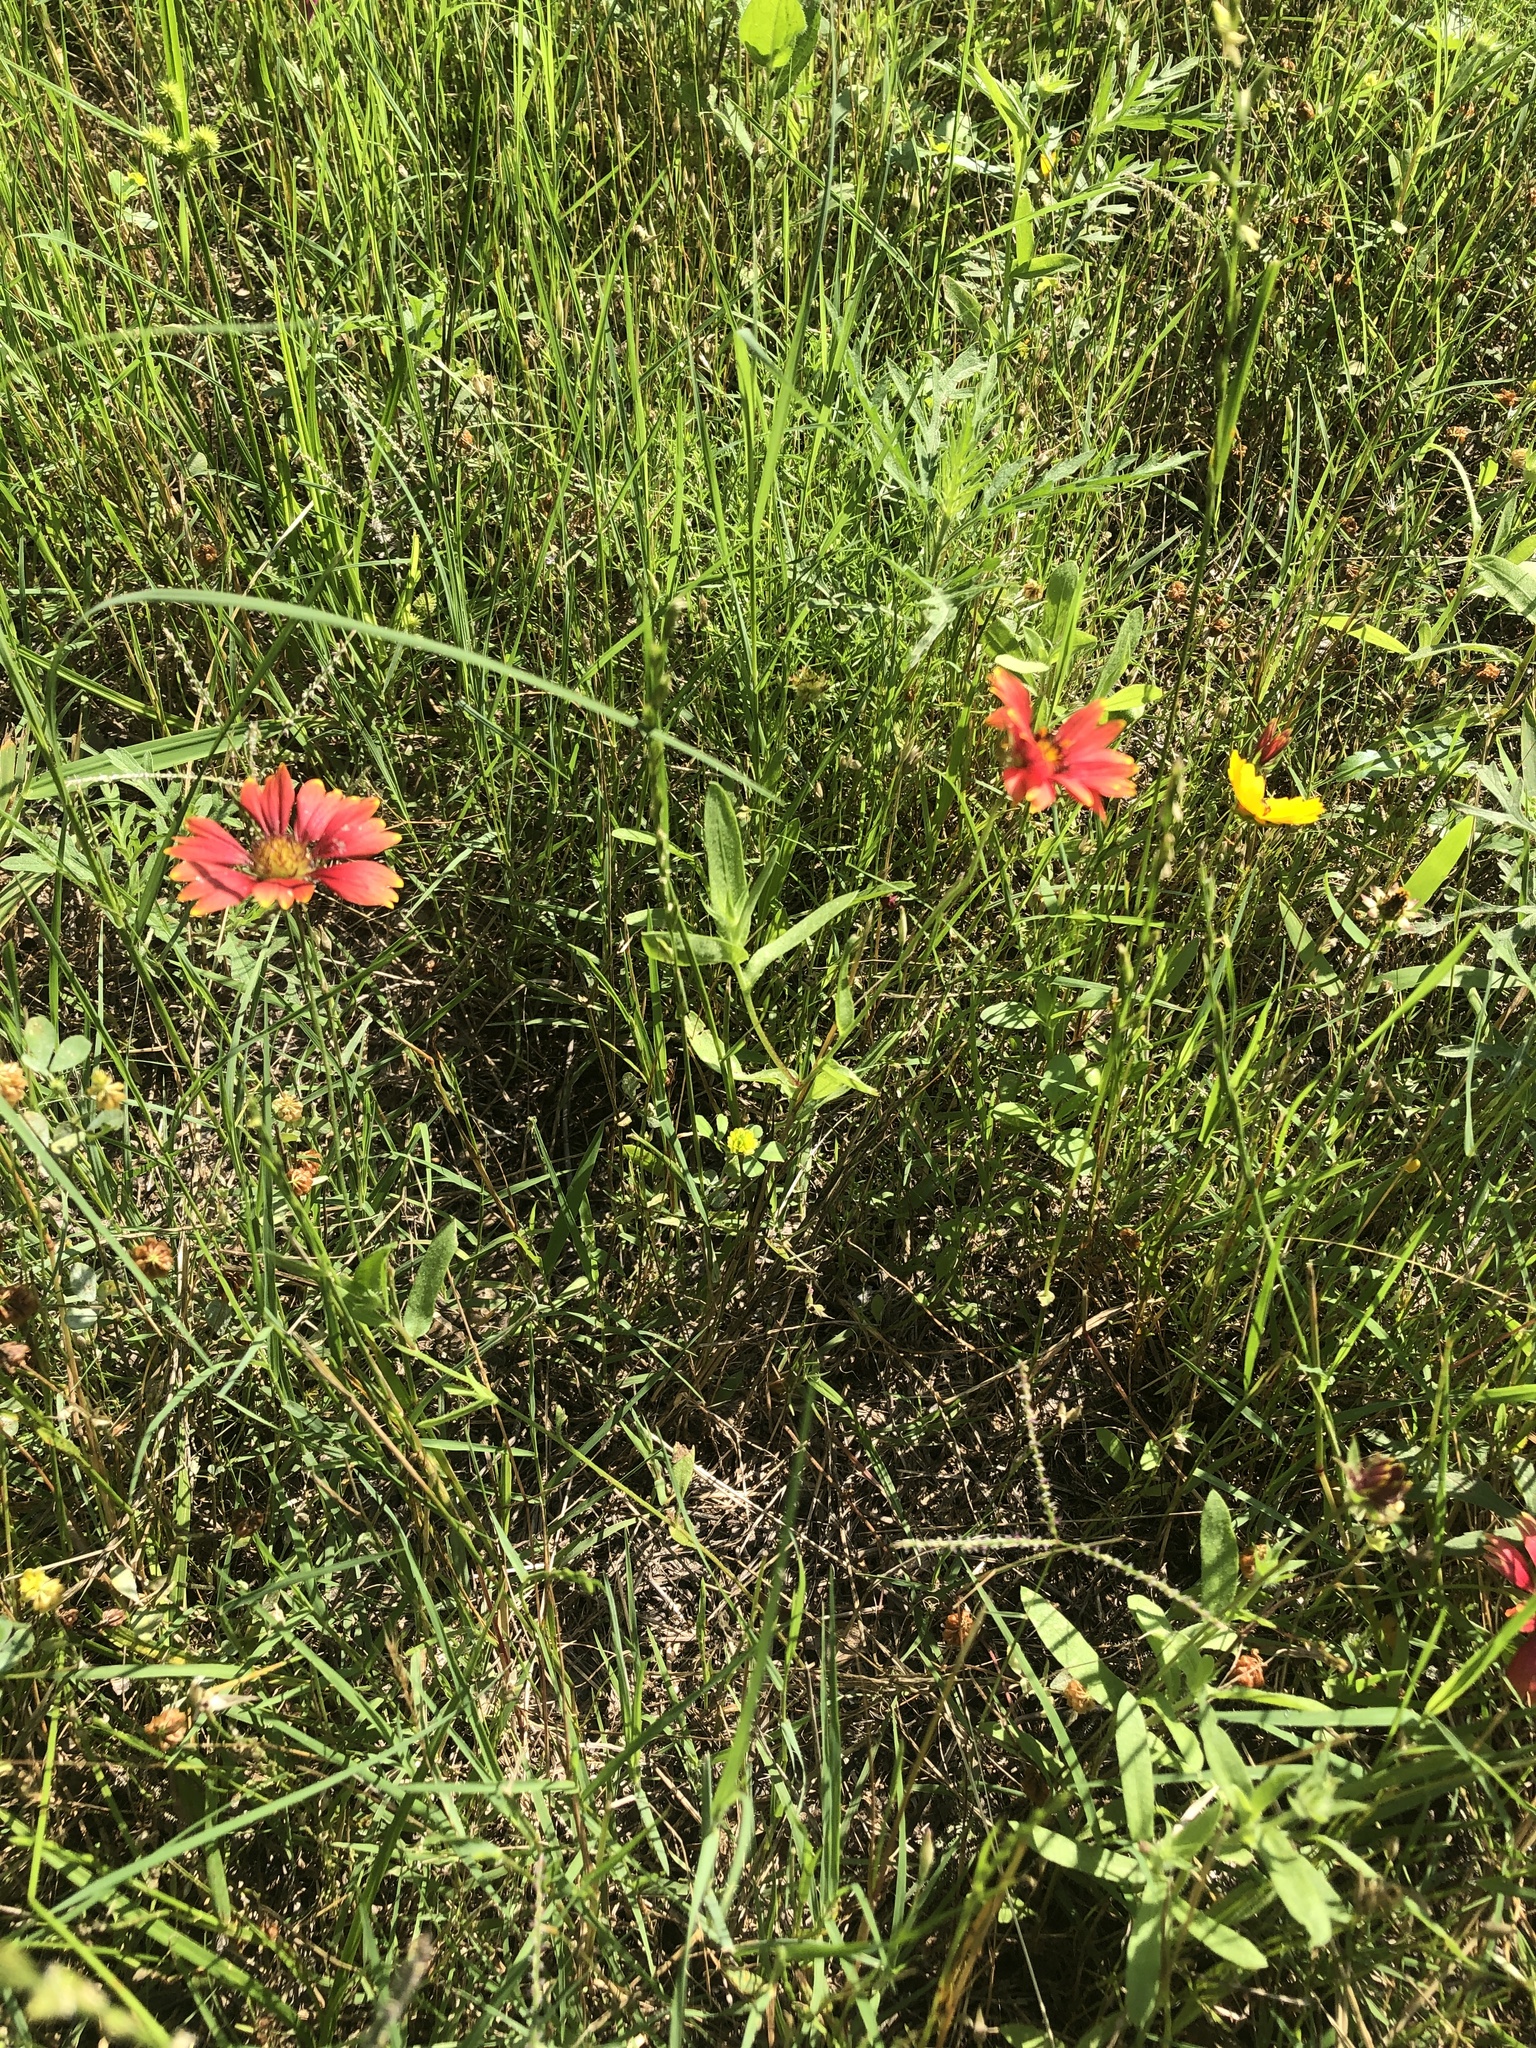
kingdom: Plantae
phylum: Tracheophyta
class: Magnoliopsida
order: Asterales
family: Asteraceae
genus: Gaillardia
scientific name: Gaillardia pulchella
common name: Firewheel
